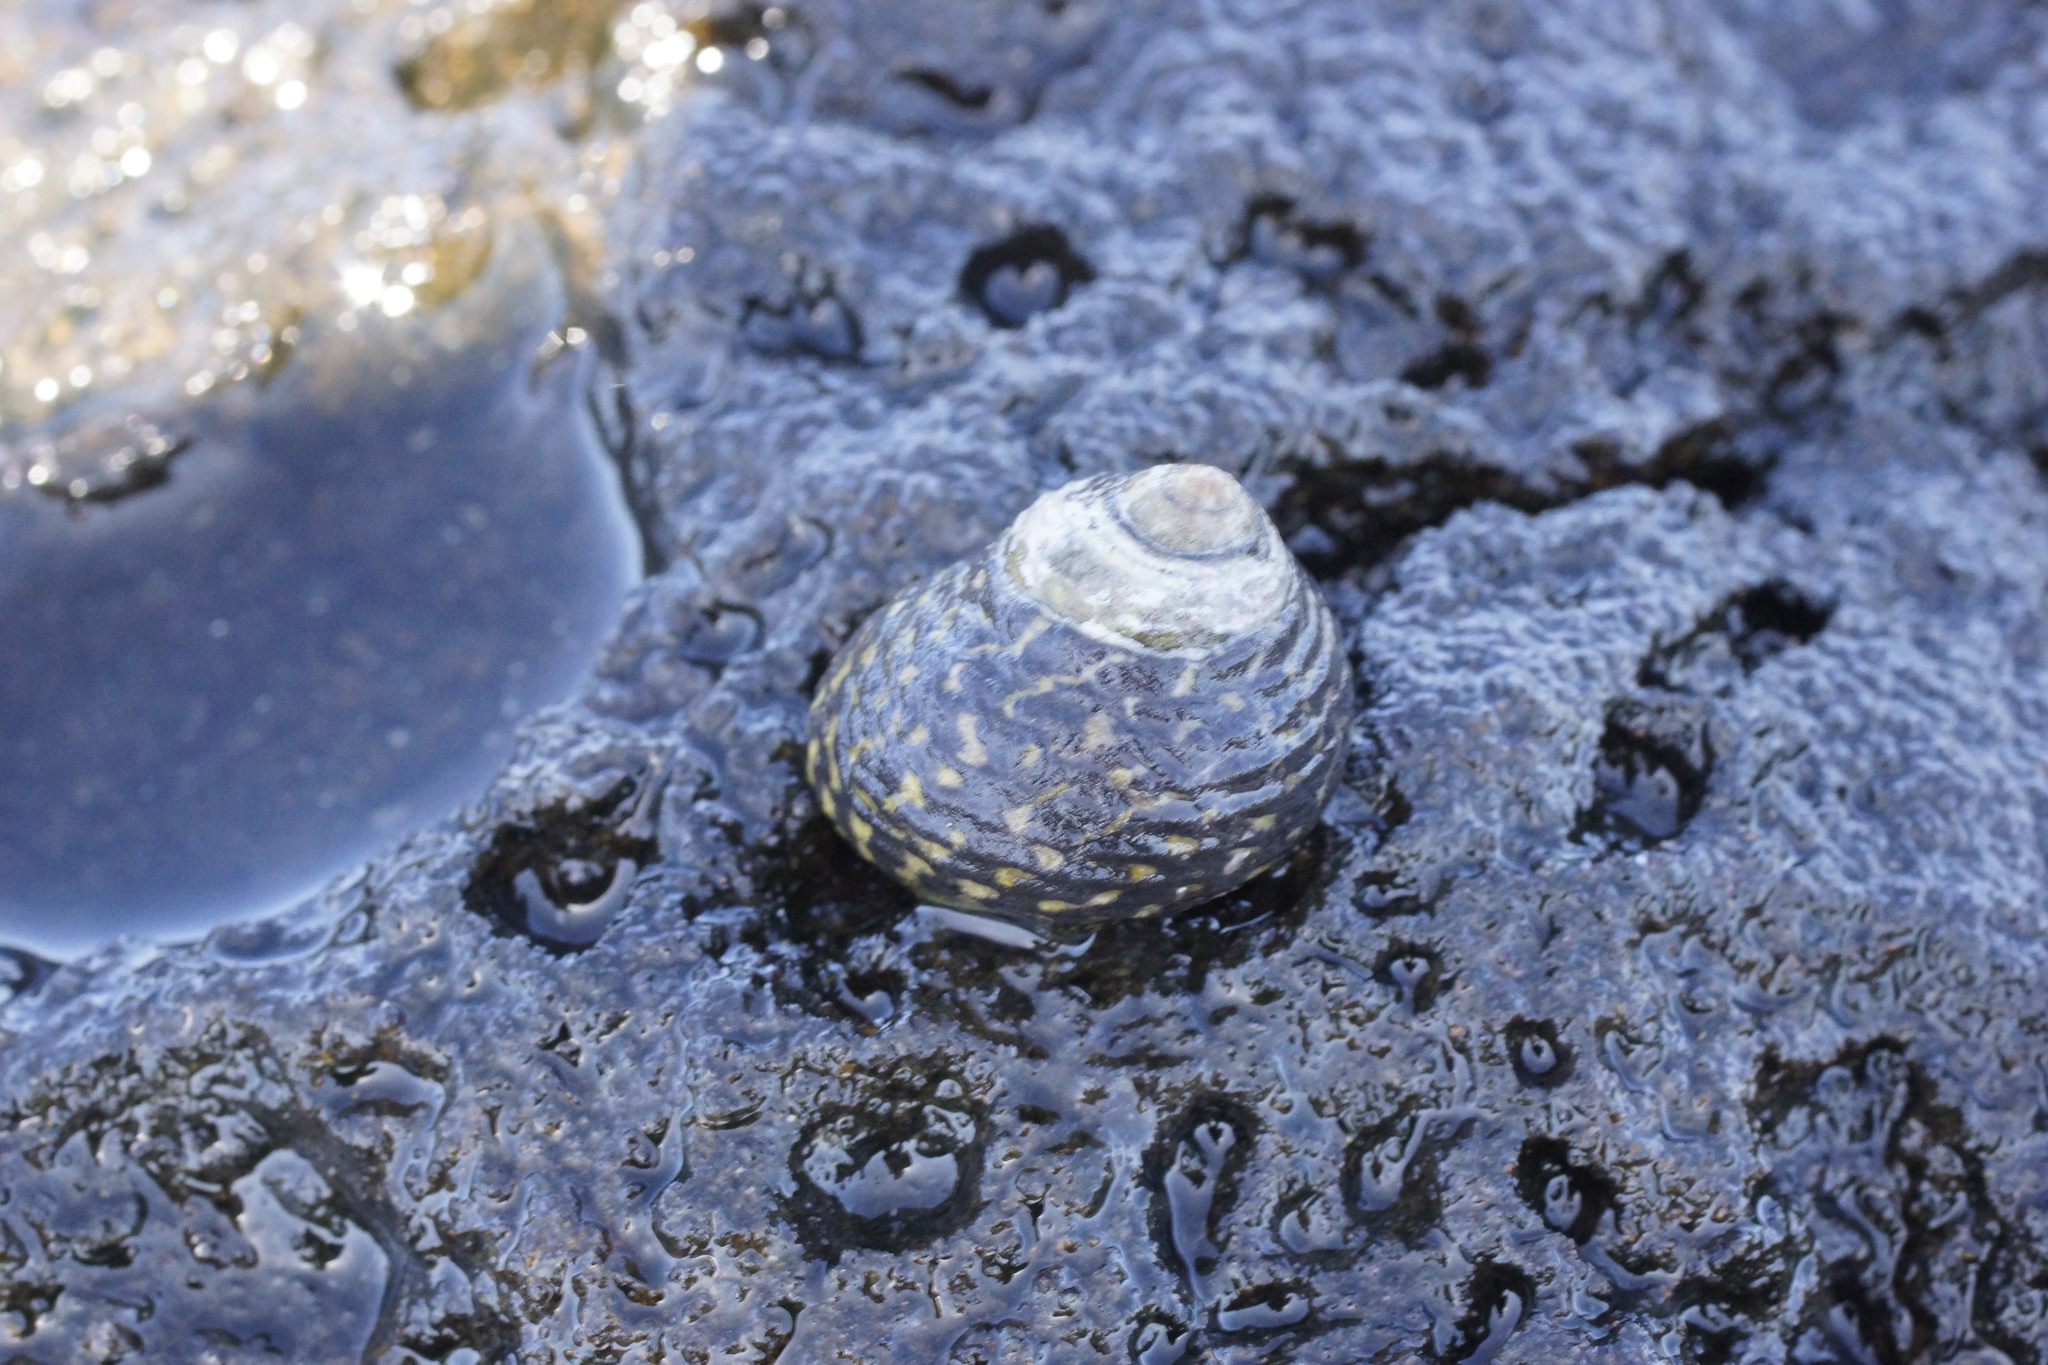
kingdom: Animalia
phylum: Mollusca
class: Gastropoda
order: Trochida
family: Trochidae
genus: Diloma
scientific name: Diloma concameratum
